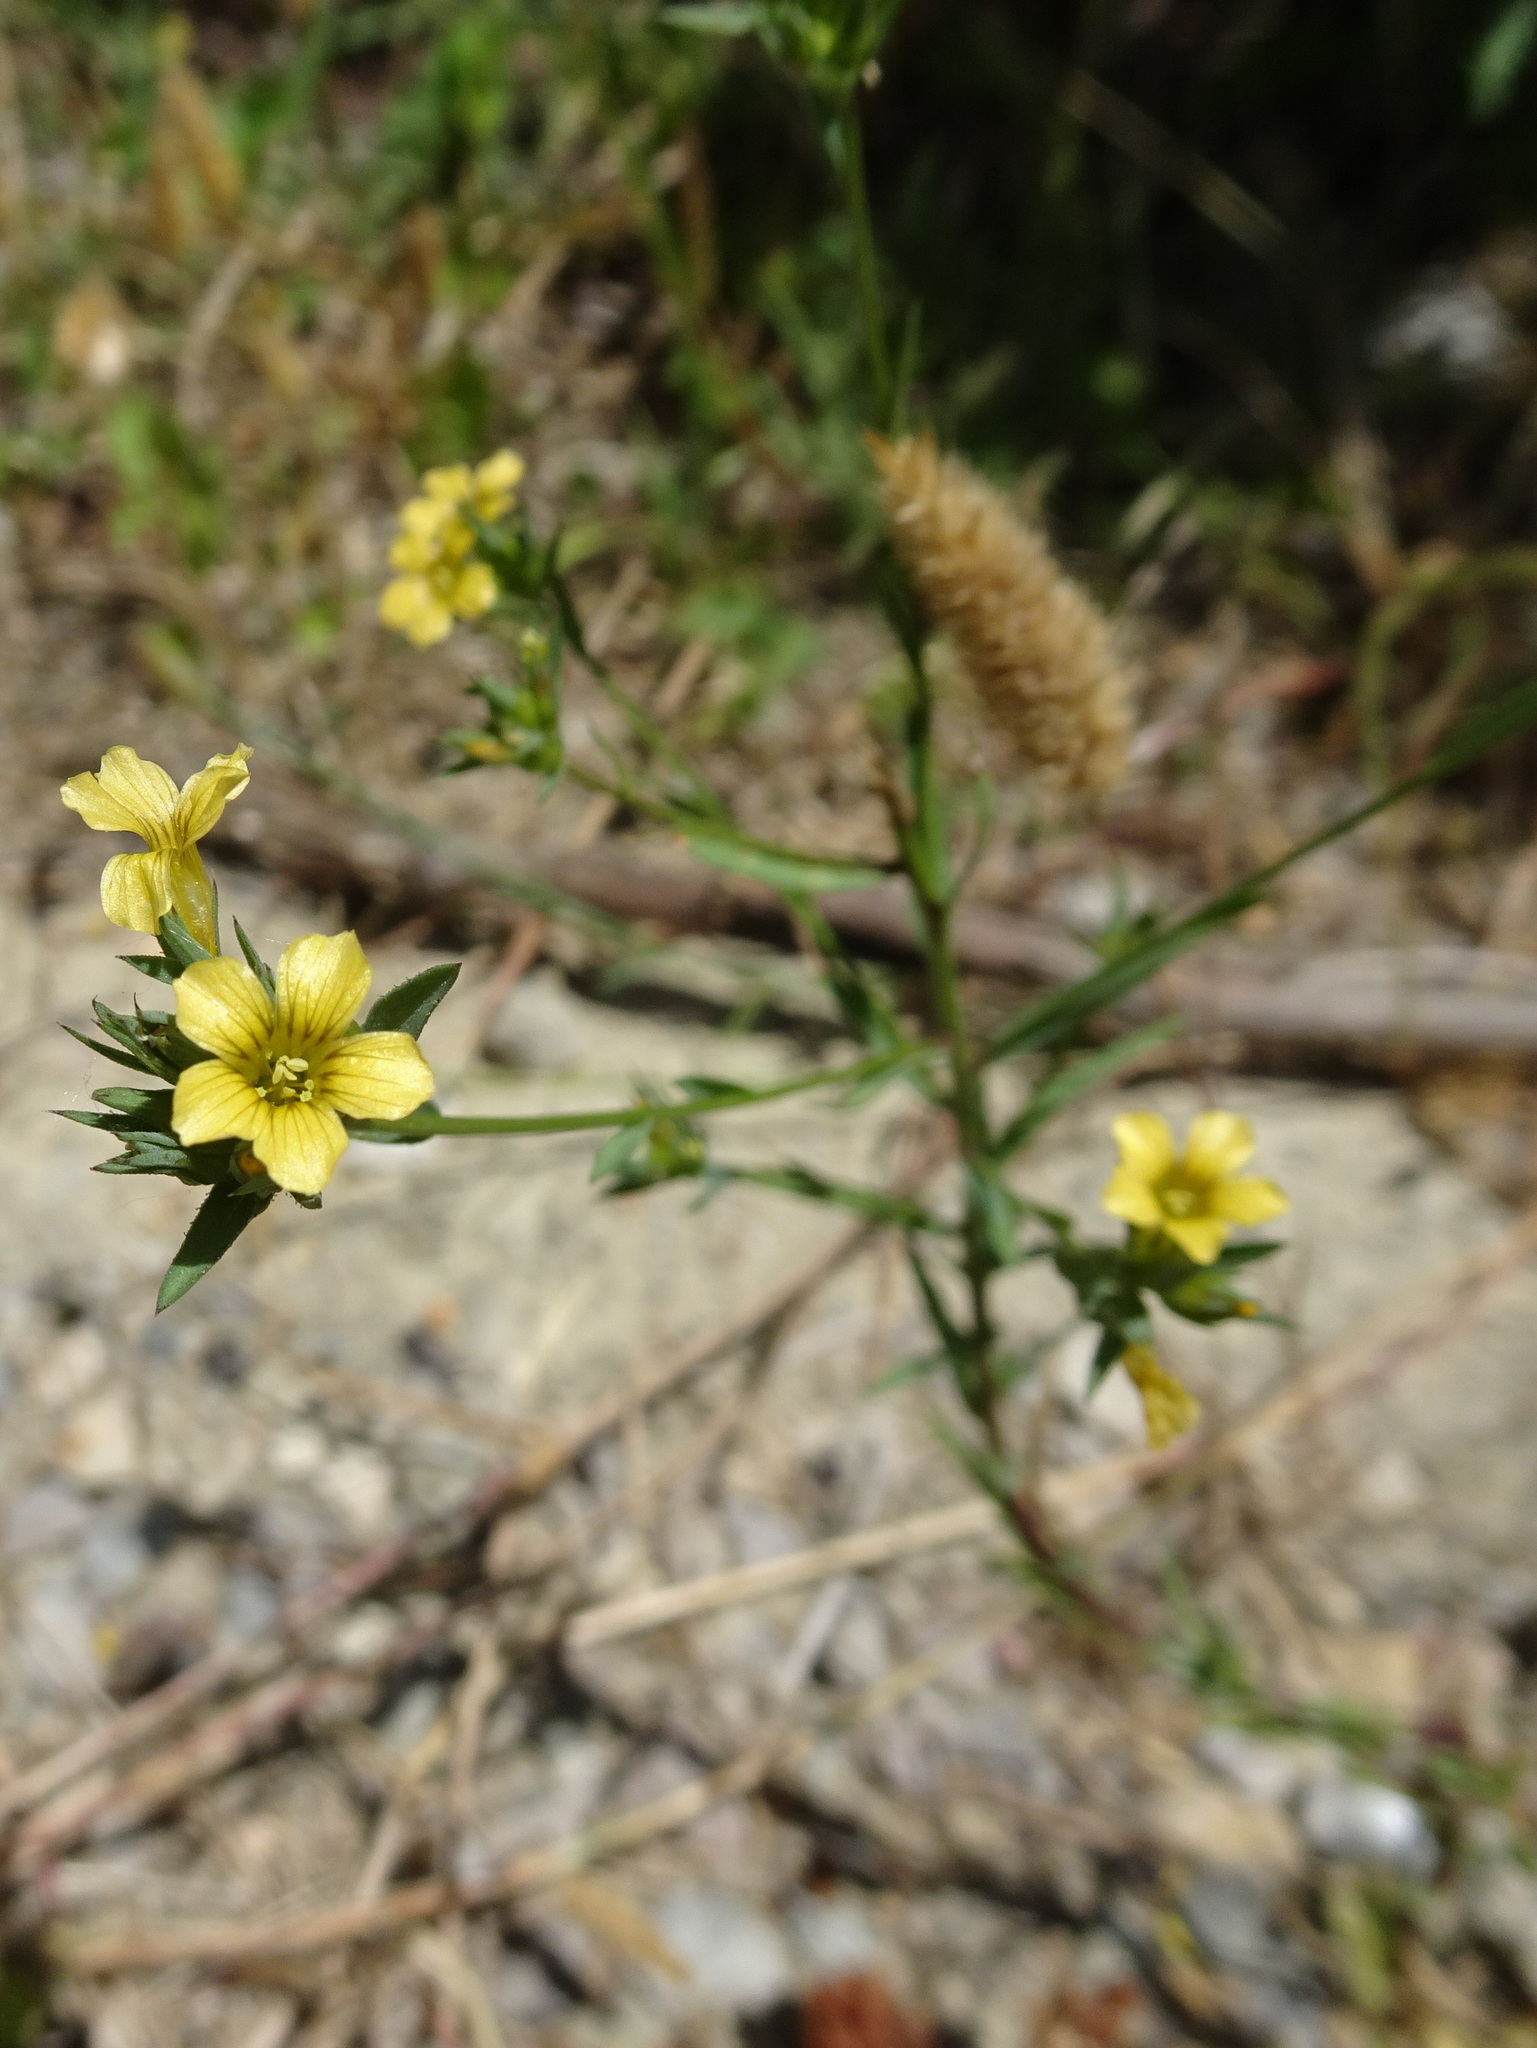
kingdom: Plantae
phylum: Tracheophyta
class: Magnoliopsida
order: Malpighiales
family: Linaceae
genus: Linum
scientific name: Linum strictum
